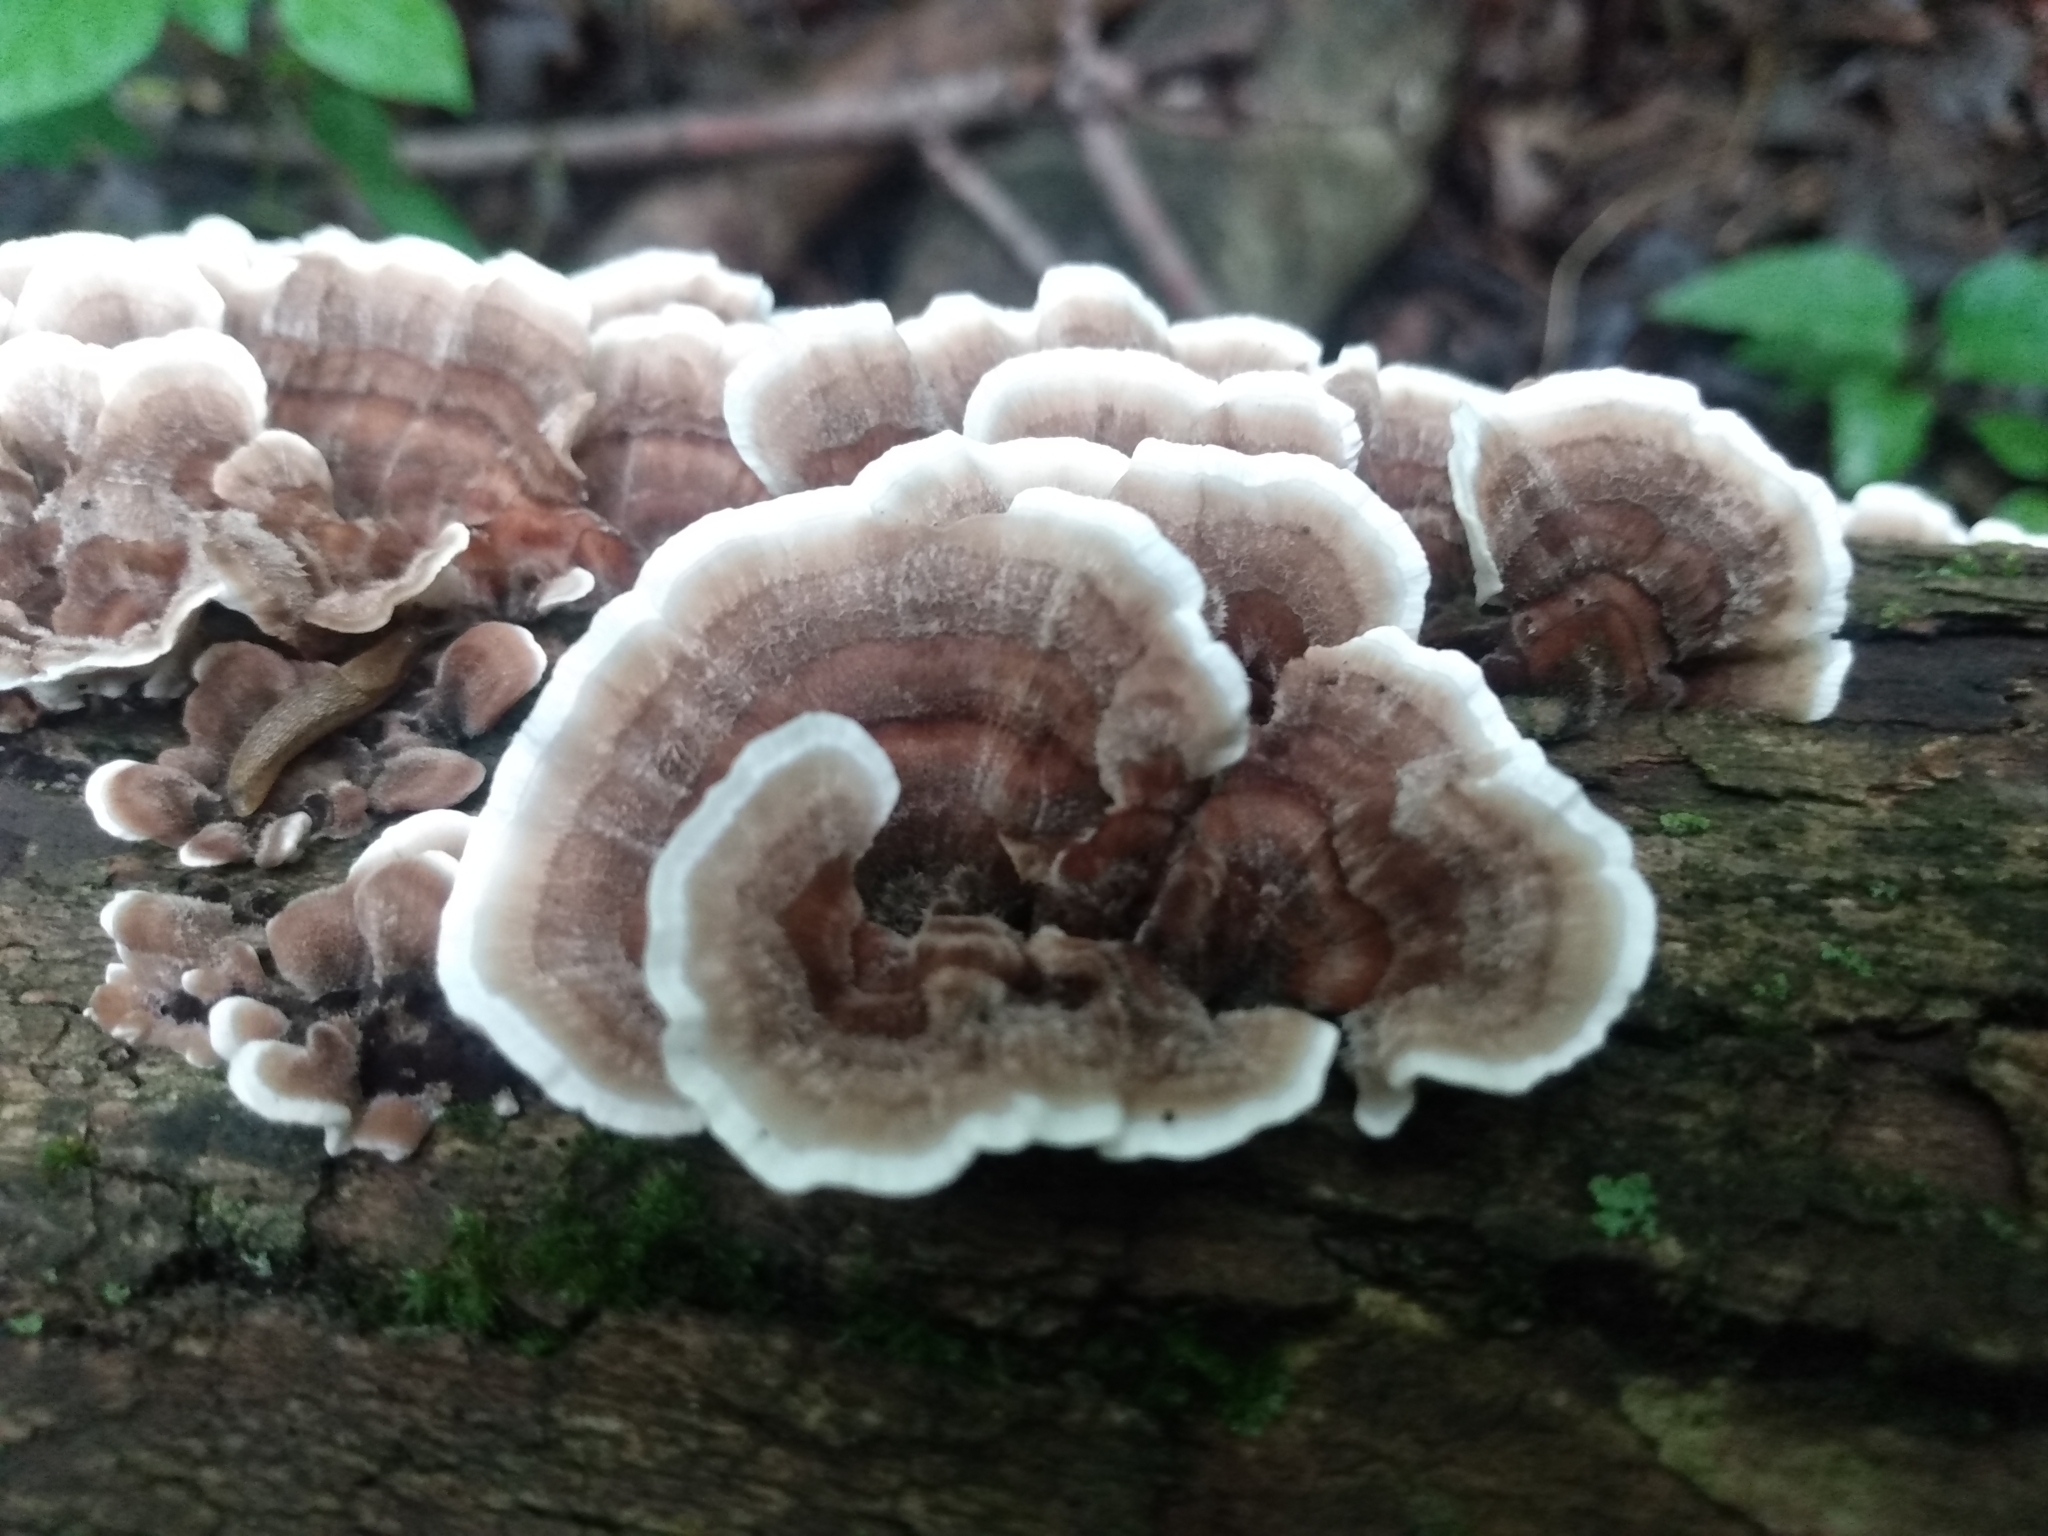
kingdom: Fungi
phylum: Basidiomycota
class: Agaricomycetes
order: Polyporales
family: Polyporaceae
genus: Trametes
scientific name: Trametes versicolor
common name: Turkeytail
